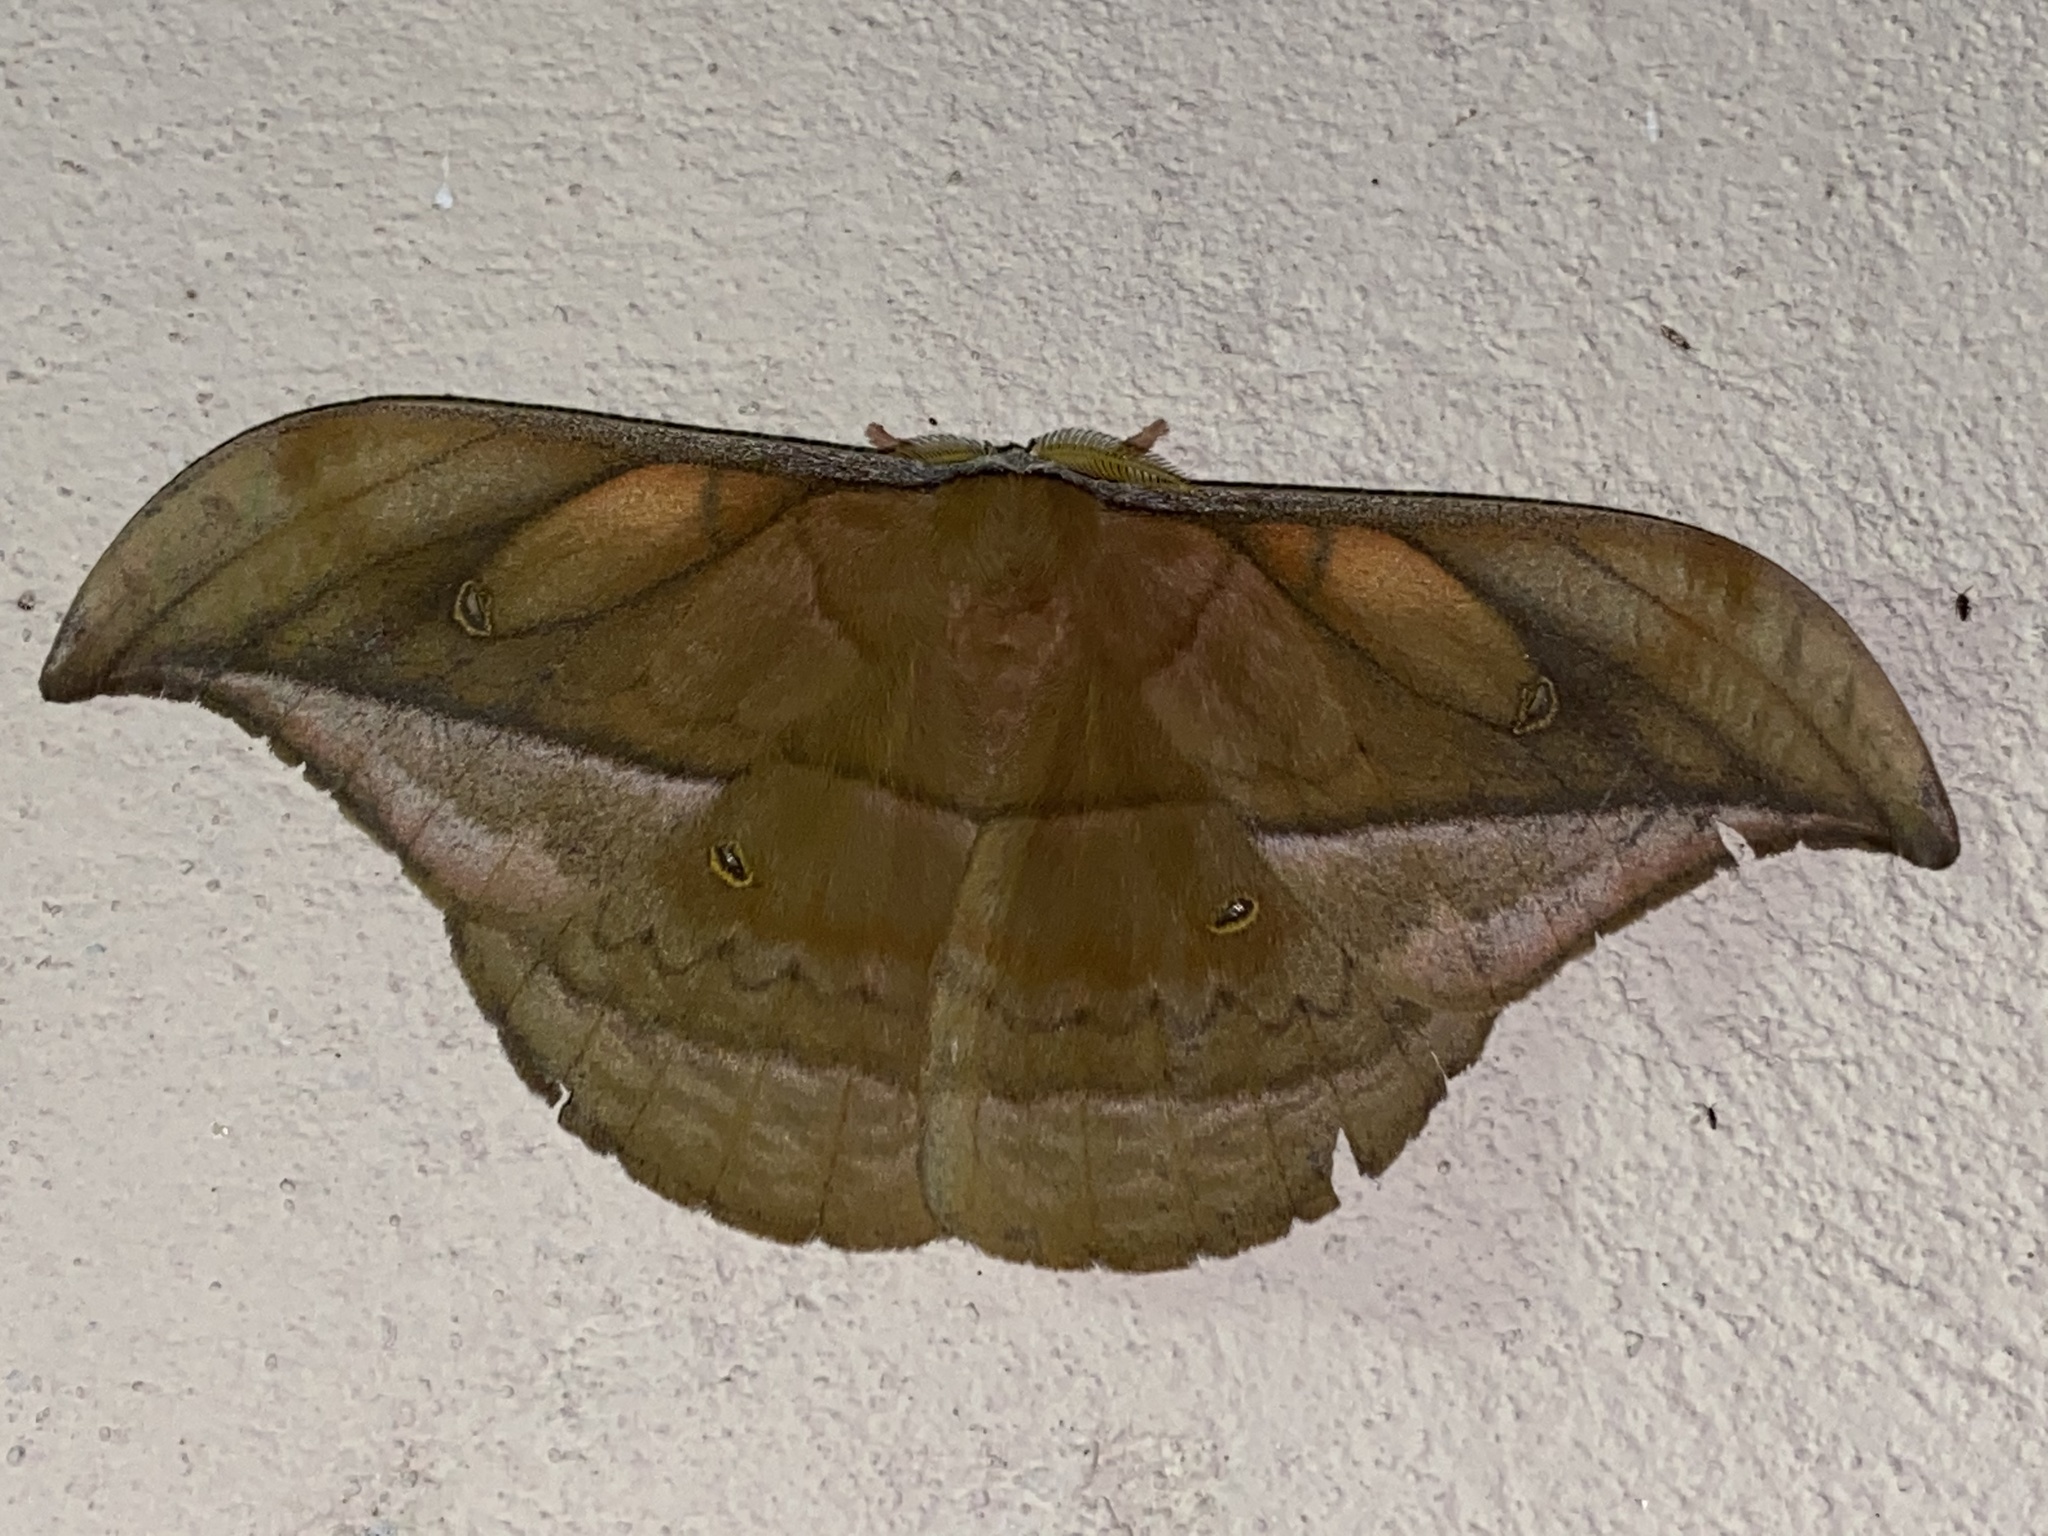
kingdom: Animalia
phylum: Arthropoda
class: Insecta
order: Lepidoptera
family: Saturniidae
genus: Copaxa
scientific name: Copaxa decrescens
